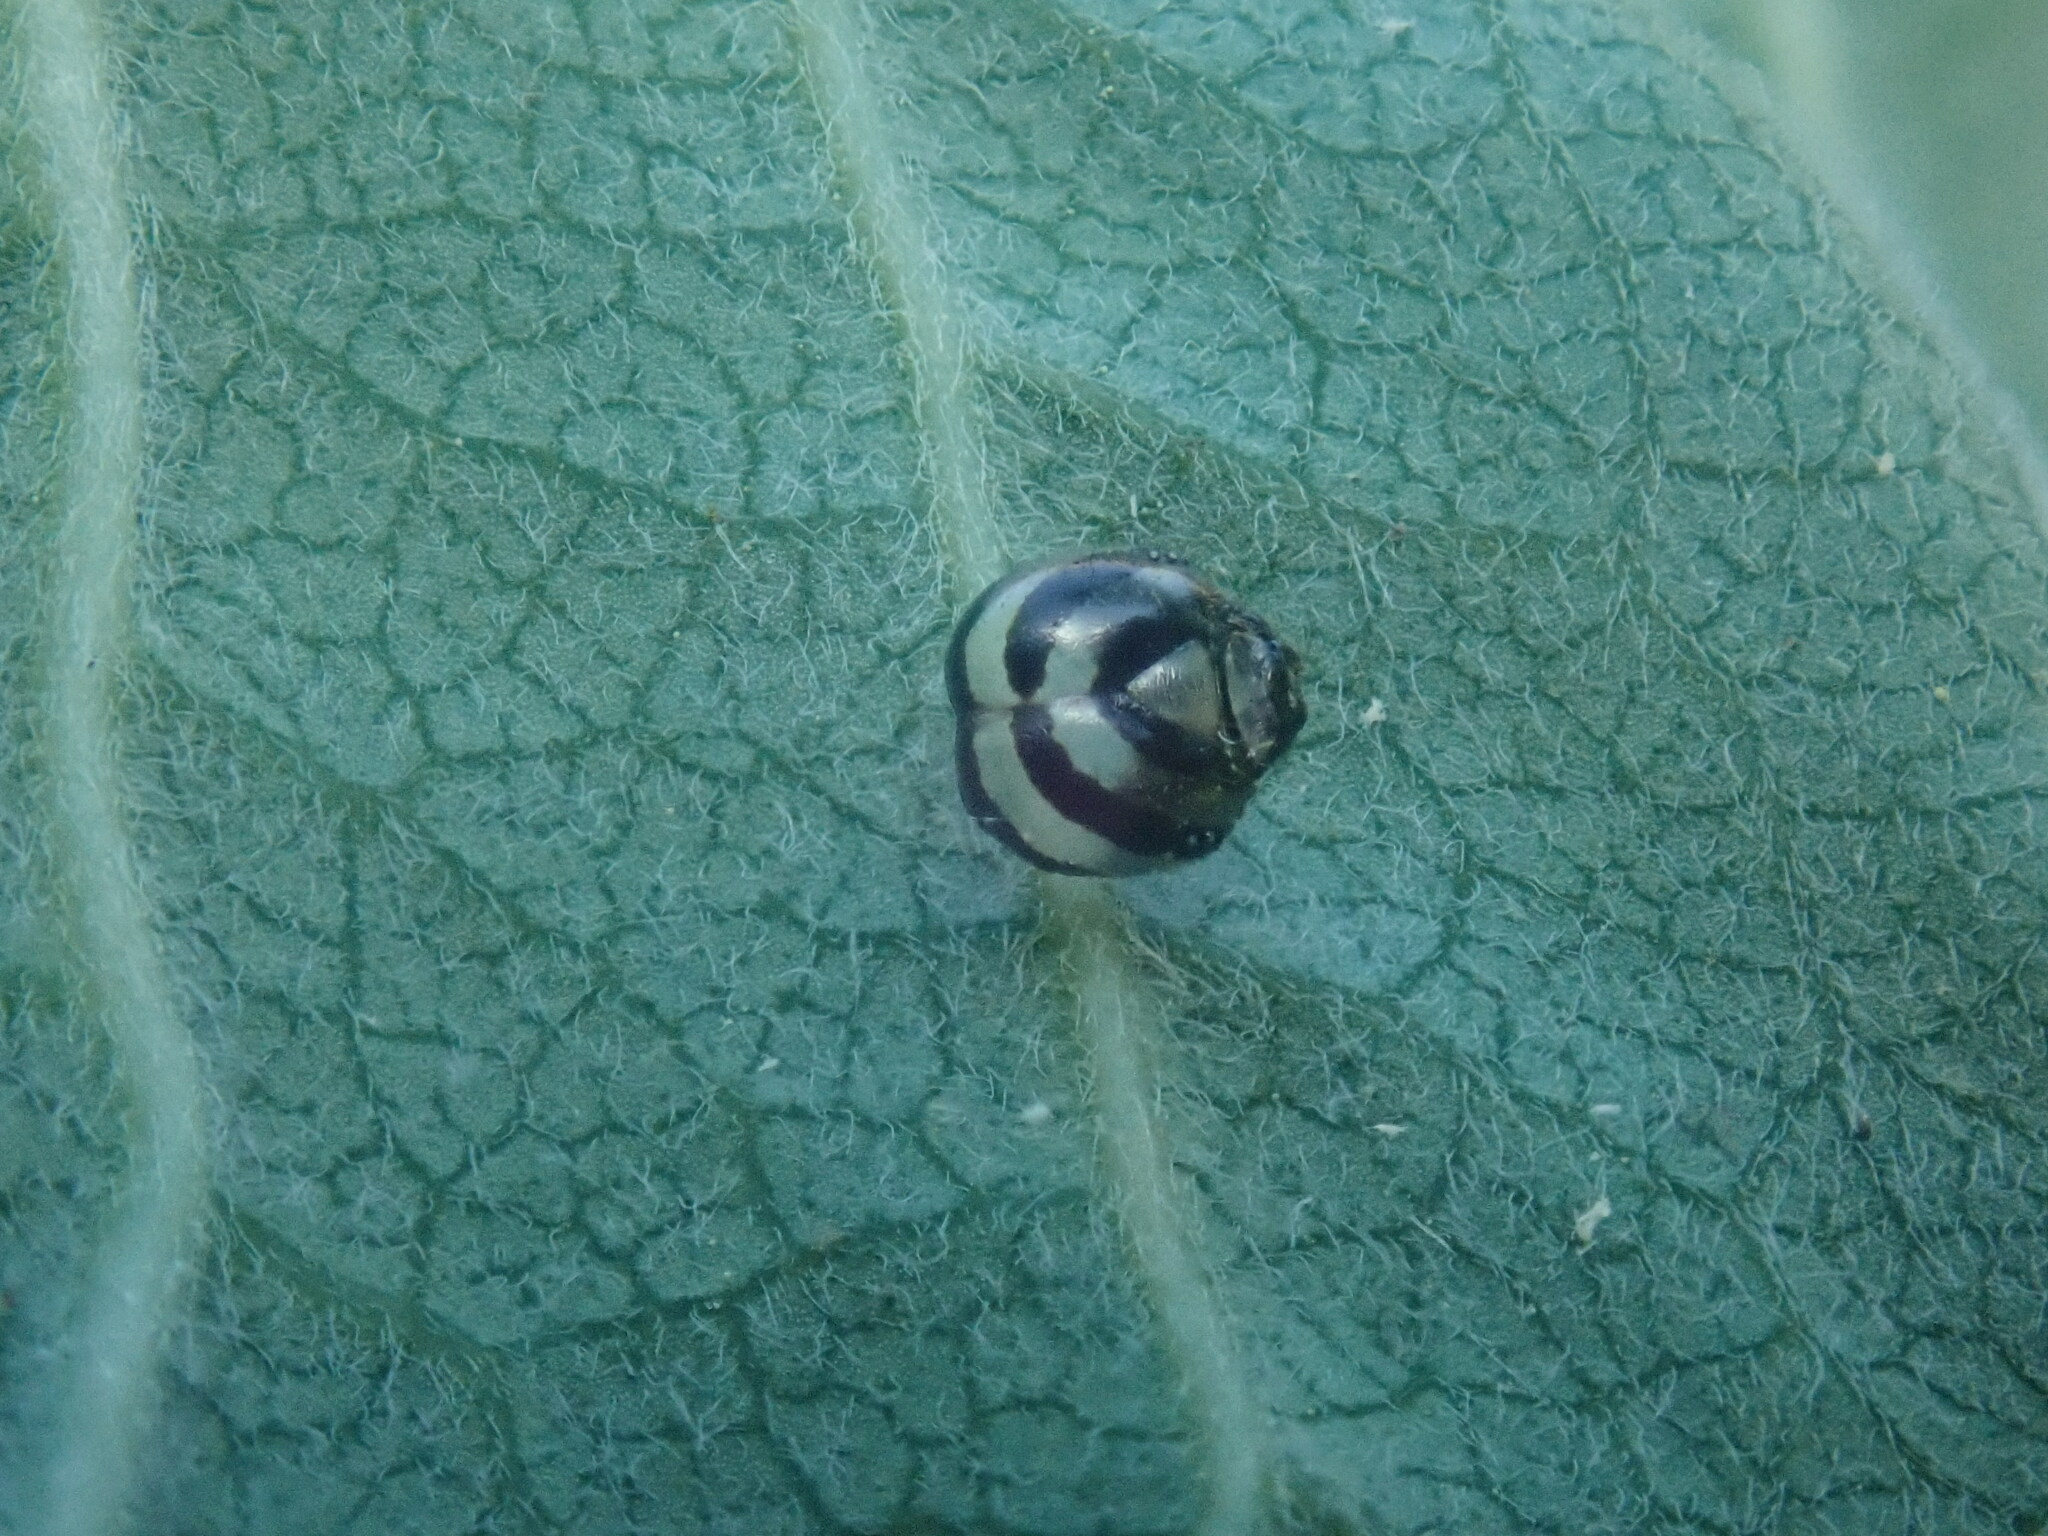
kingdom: Animalia
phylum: Arthropoda
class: Insecta
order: Lepidoptera
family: Nymphalidae
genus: Danaus
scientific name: Danaus plexippus
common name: Monarch
